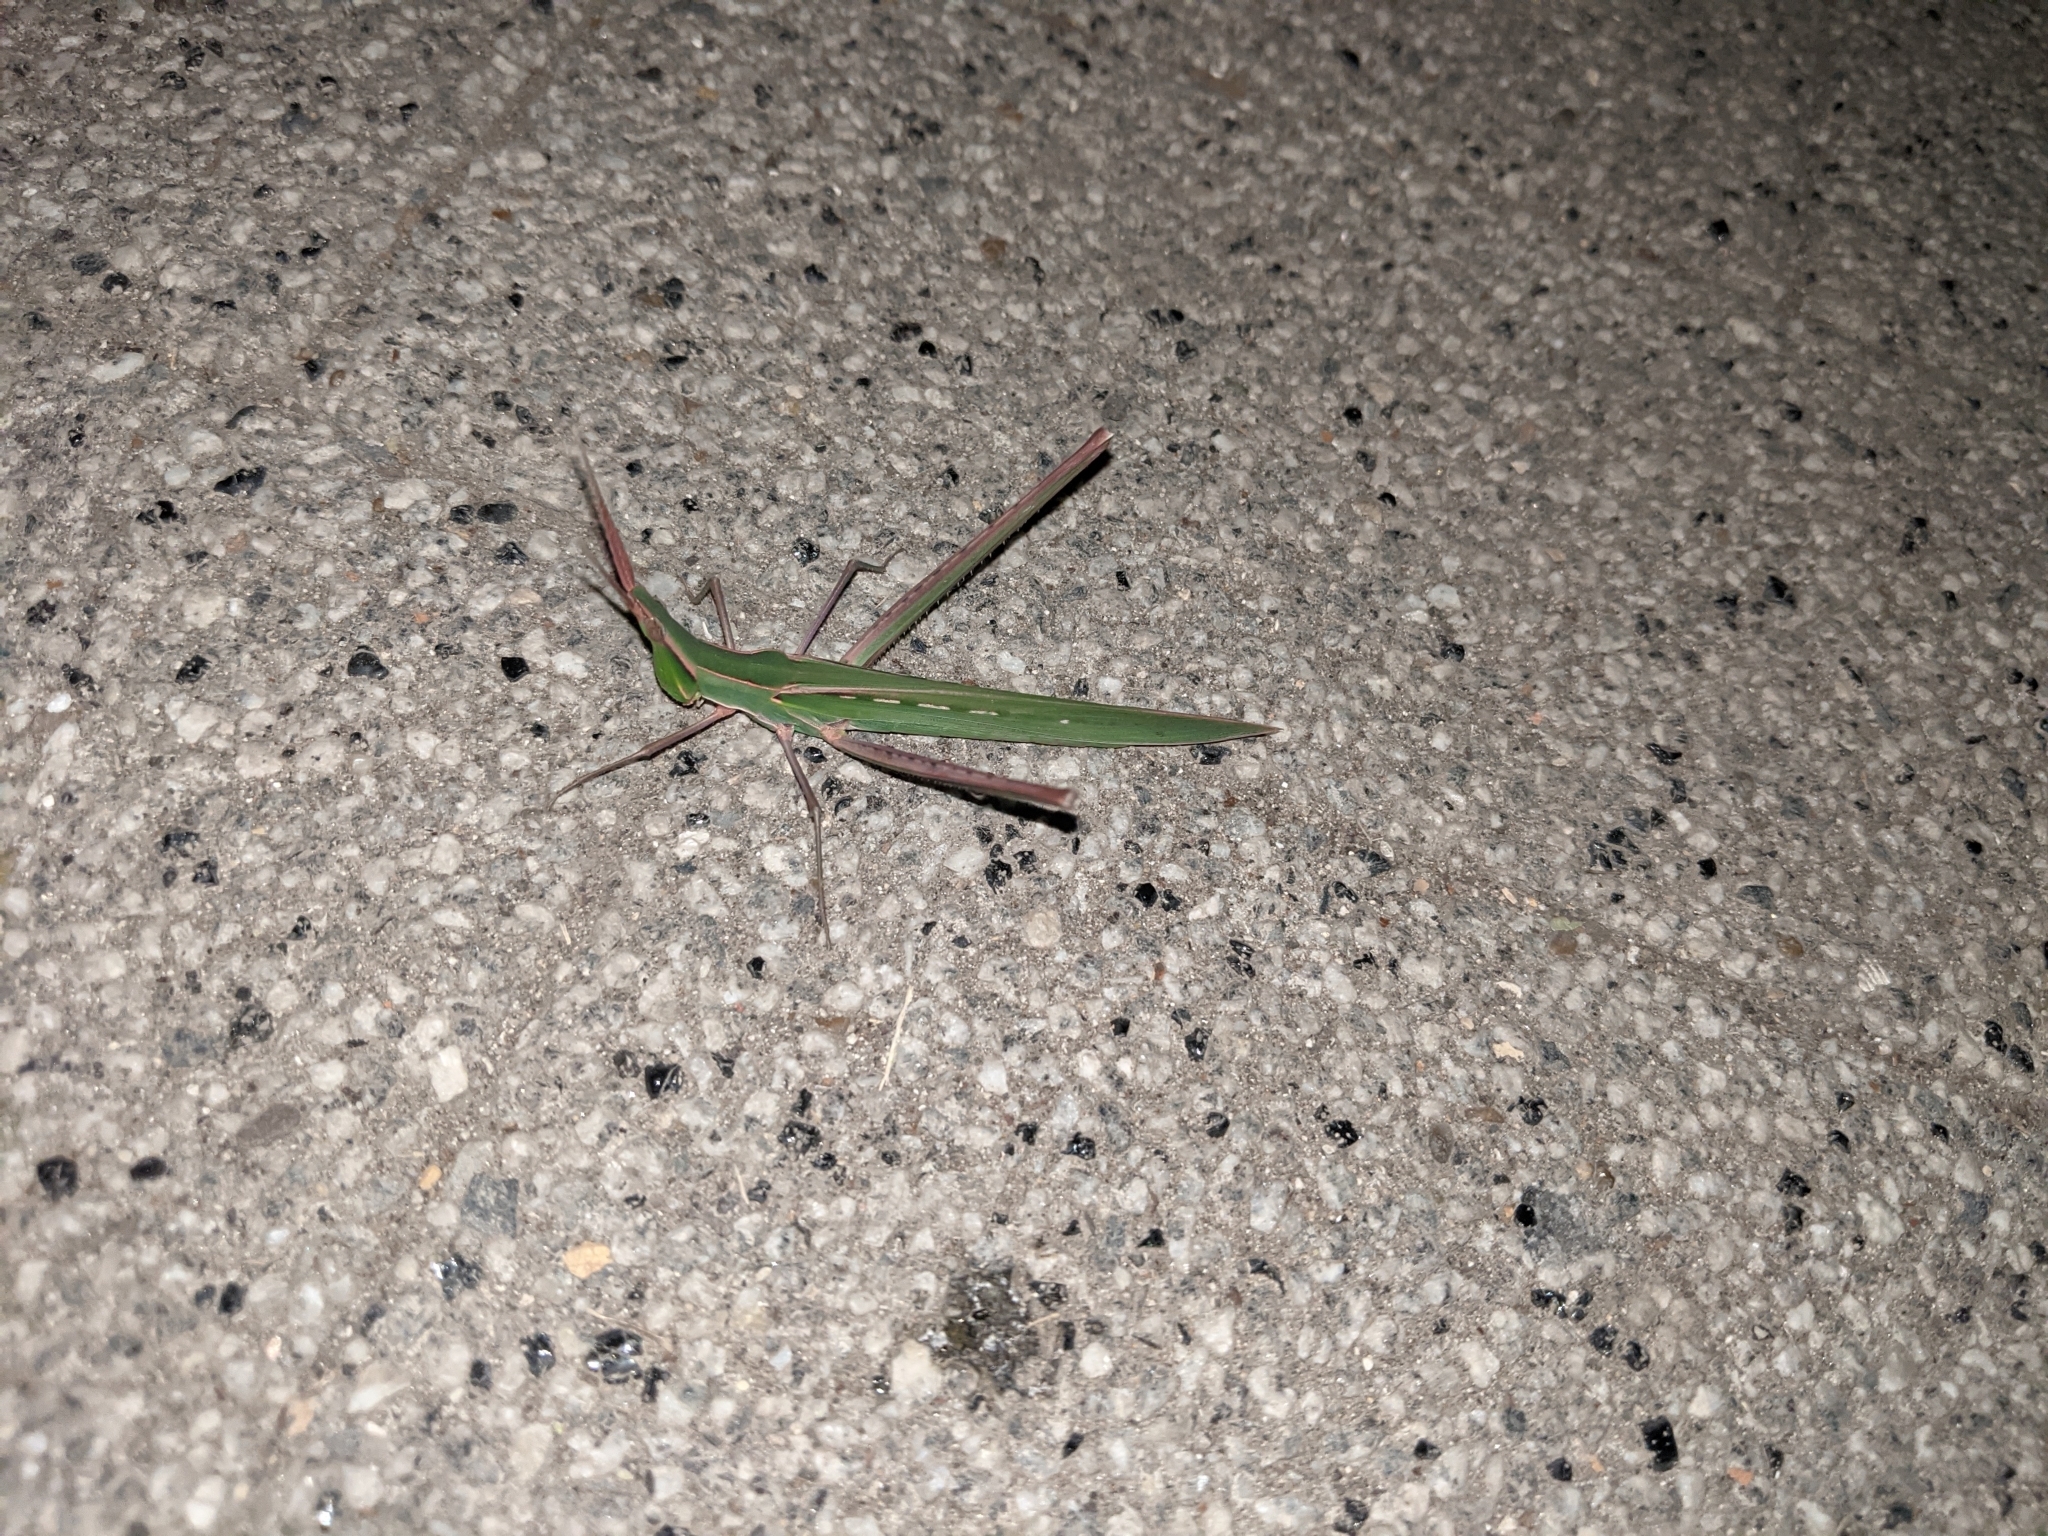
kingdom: Animalia
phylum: Arthropoda
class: Insecta
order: Orthoptera
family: Acrididae
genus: Acrida
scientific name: Acrida ungarica
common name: Common cone-headed grasshopper
